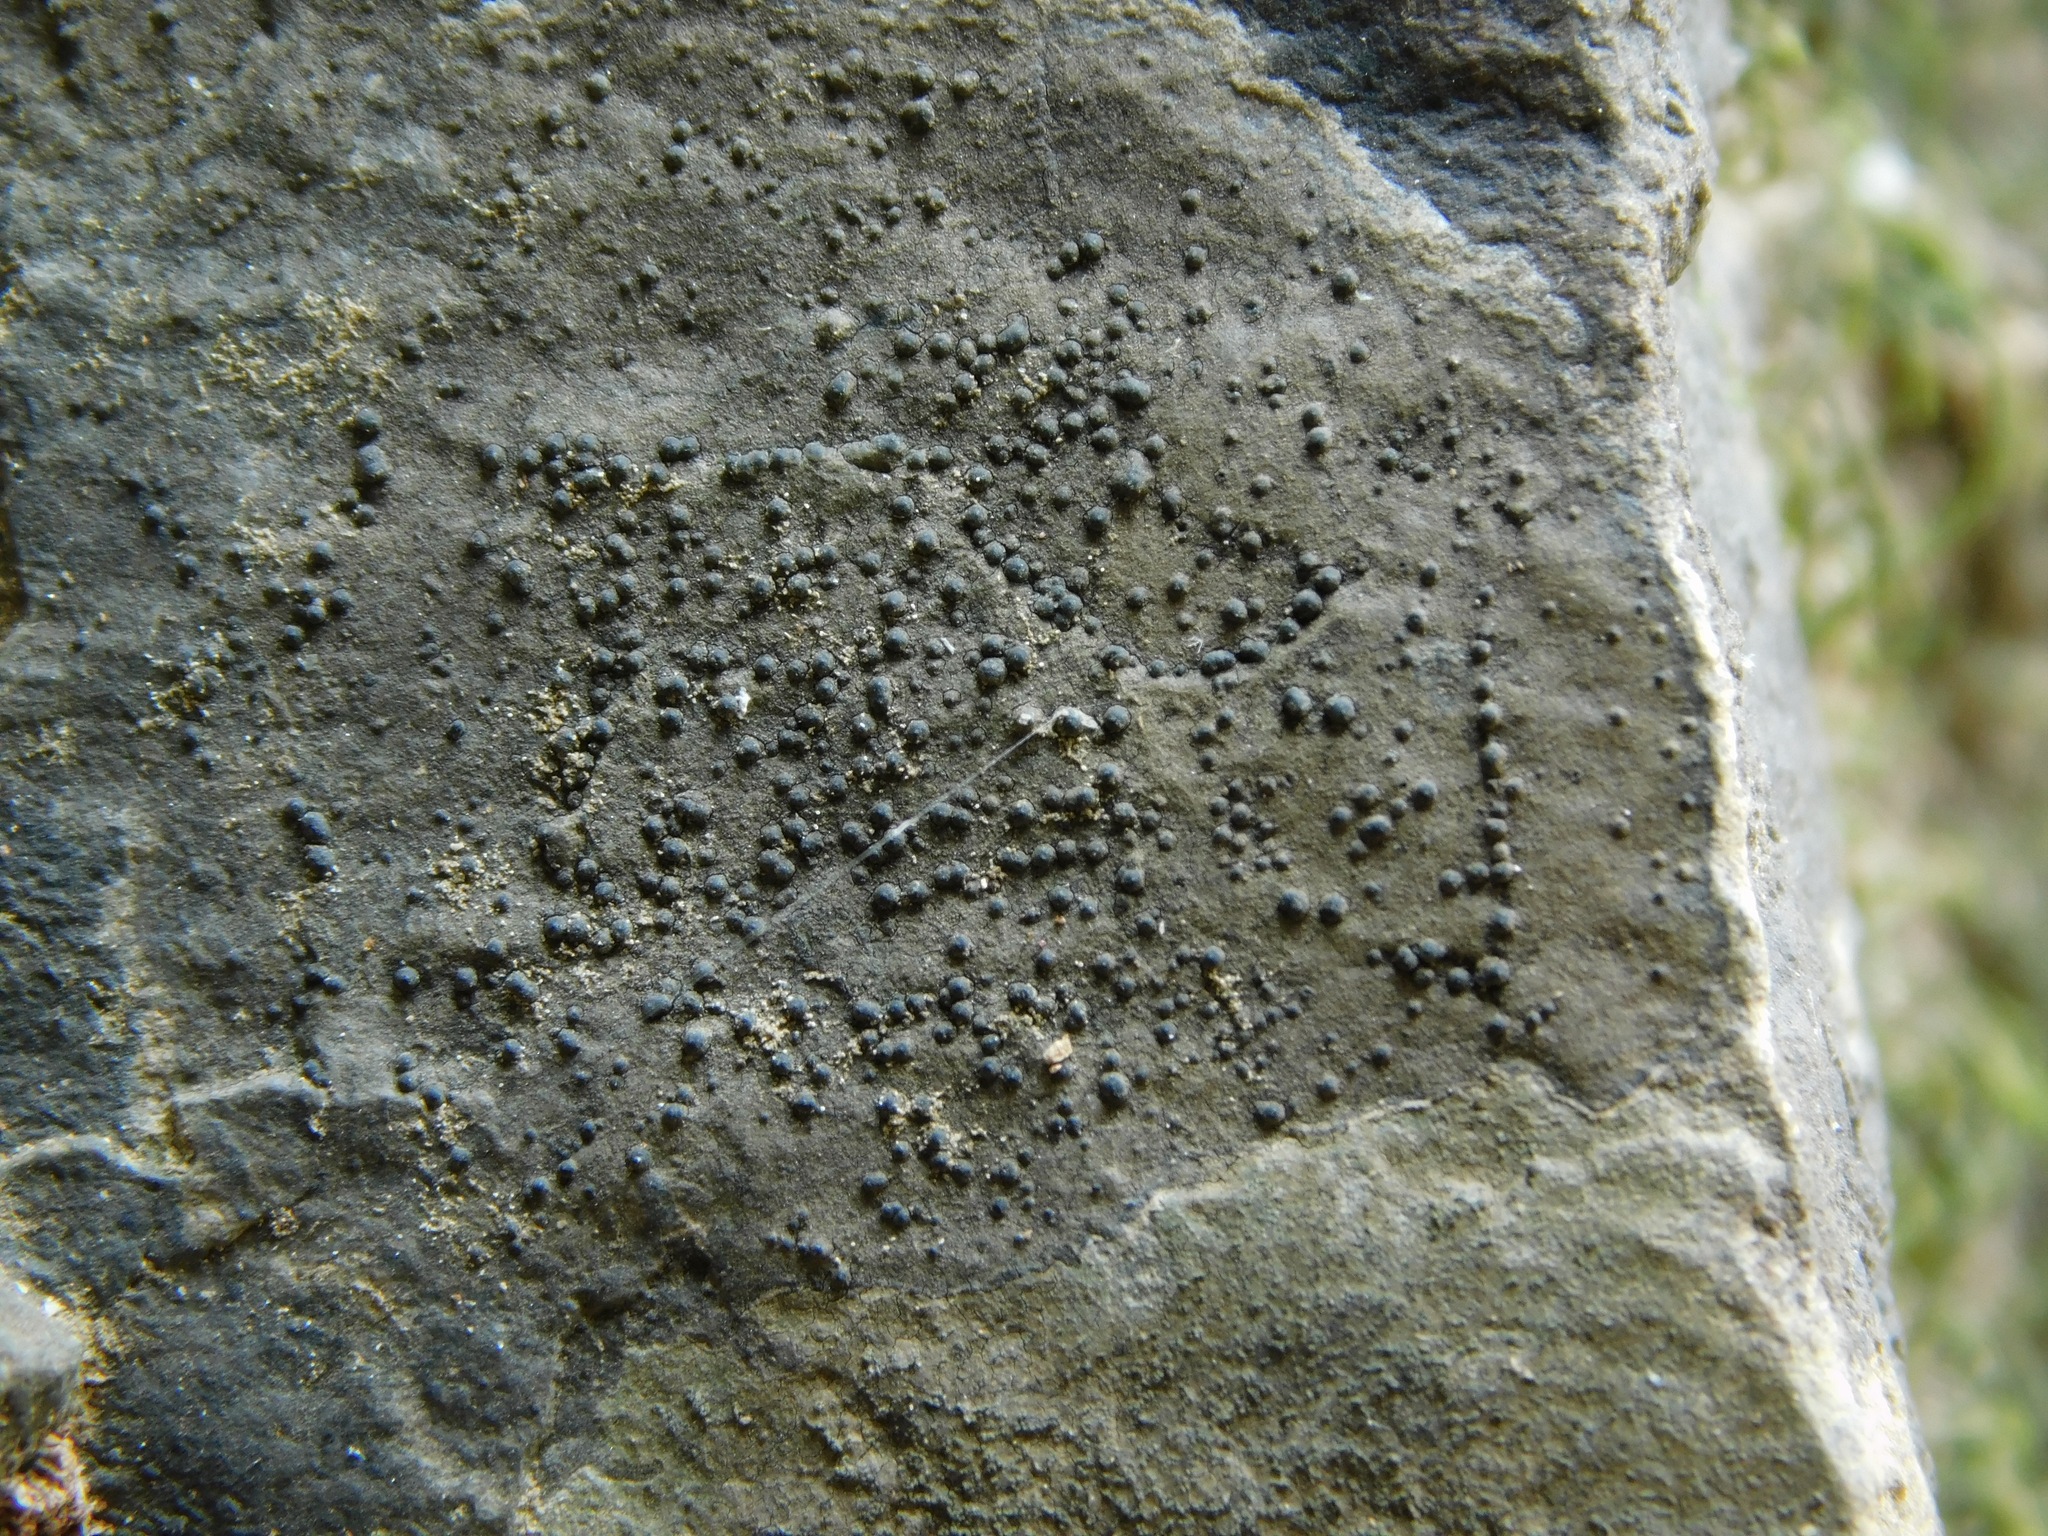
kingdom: Fungi
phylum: Ascomycota
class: Lecanoromycetes
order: Ostropales
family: Porinaceae
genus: Pseudosagedia
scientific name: Pseudosagedia guentheri
